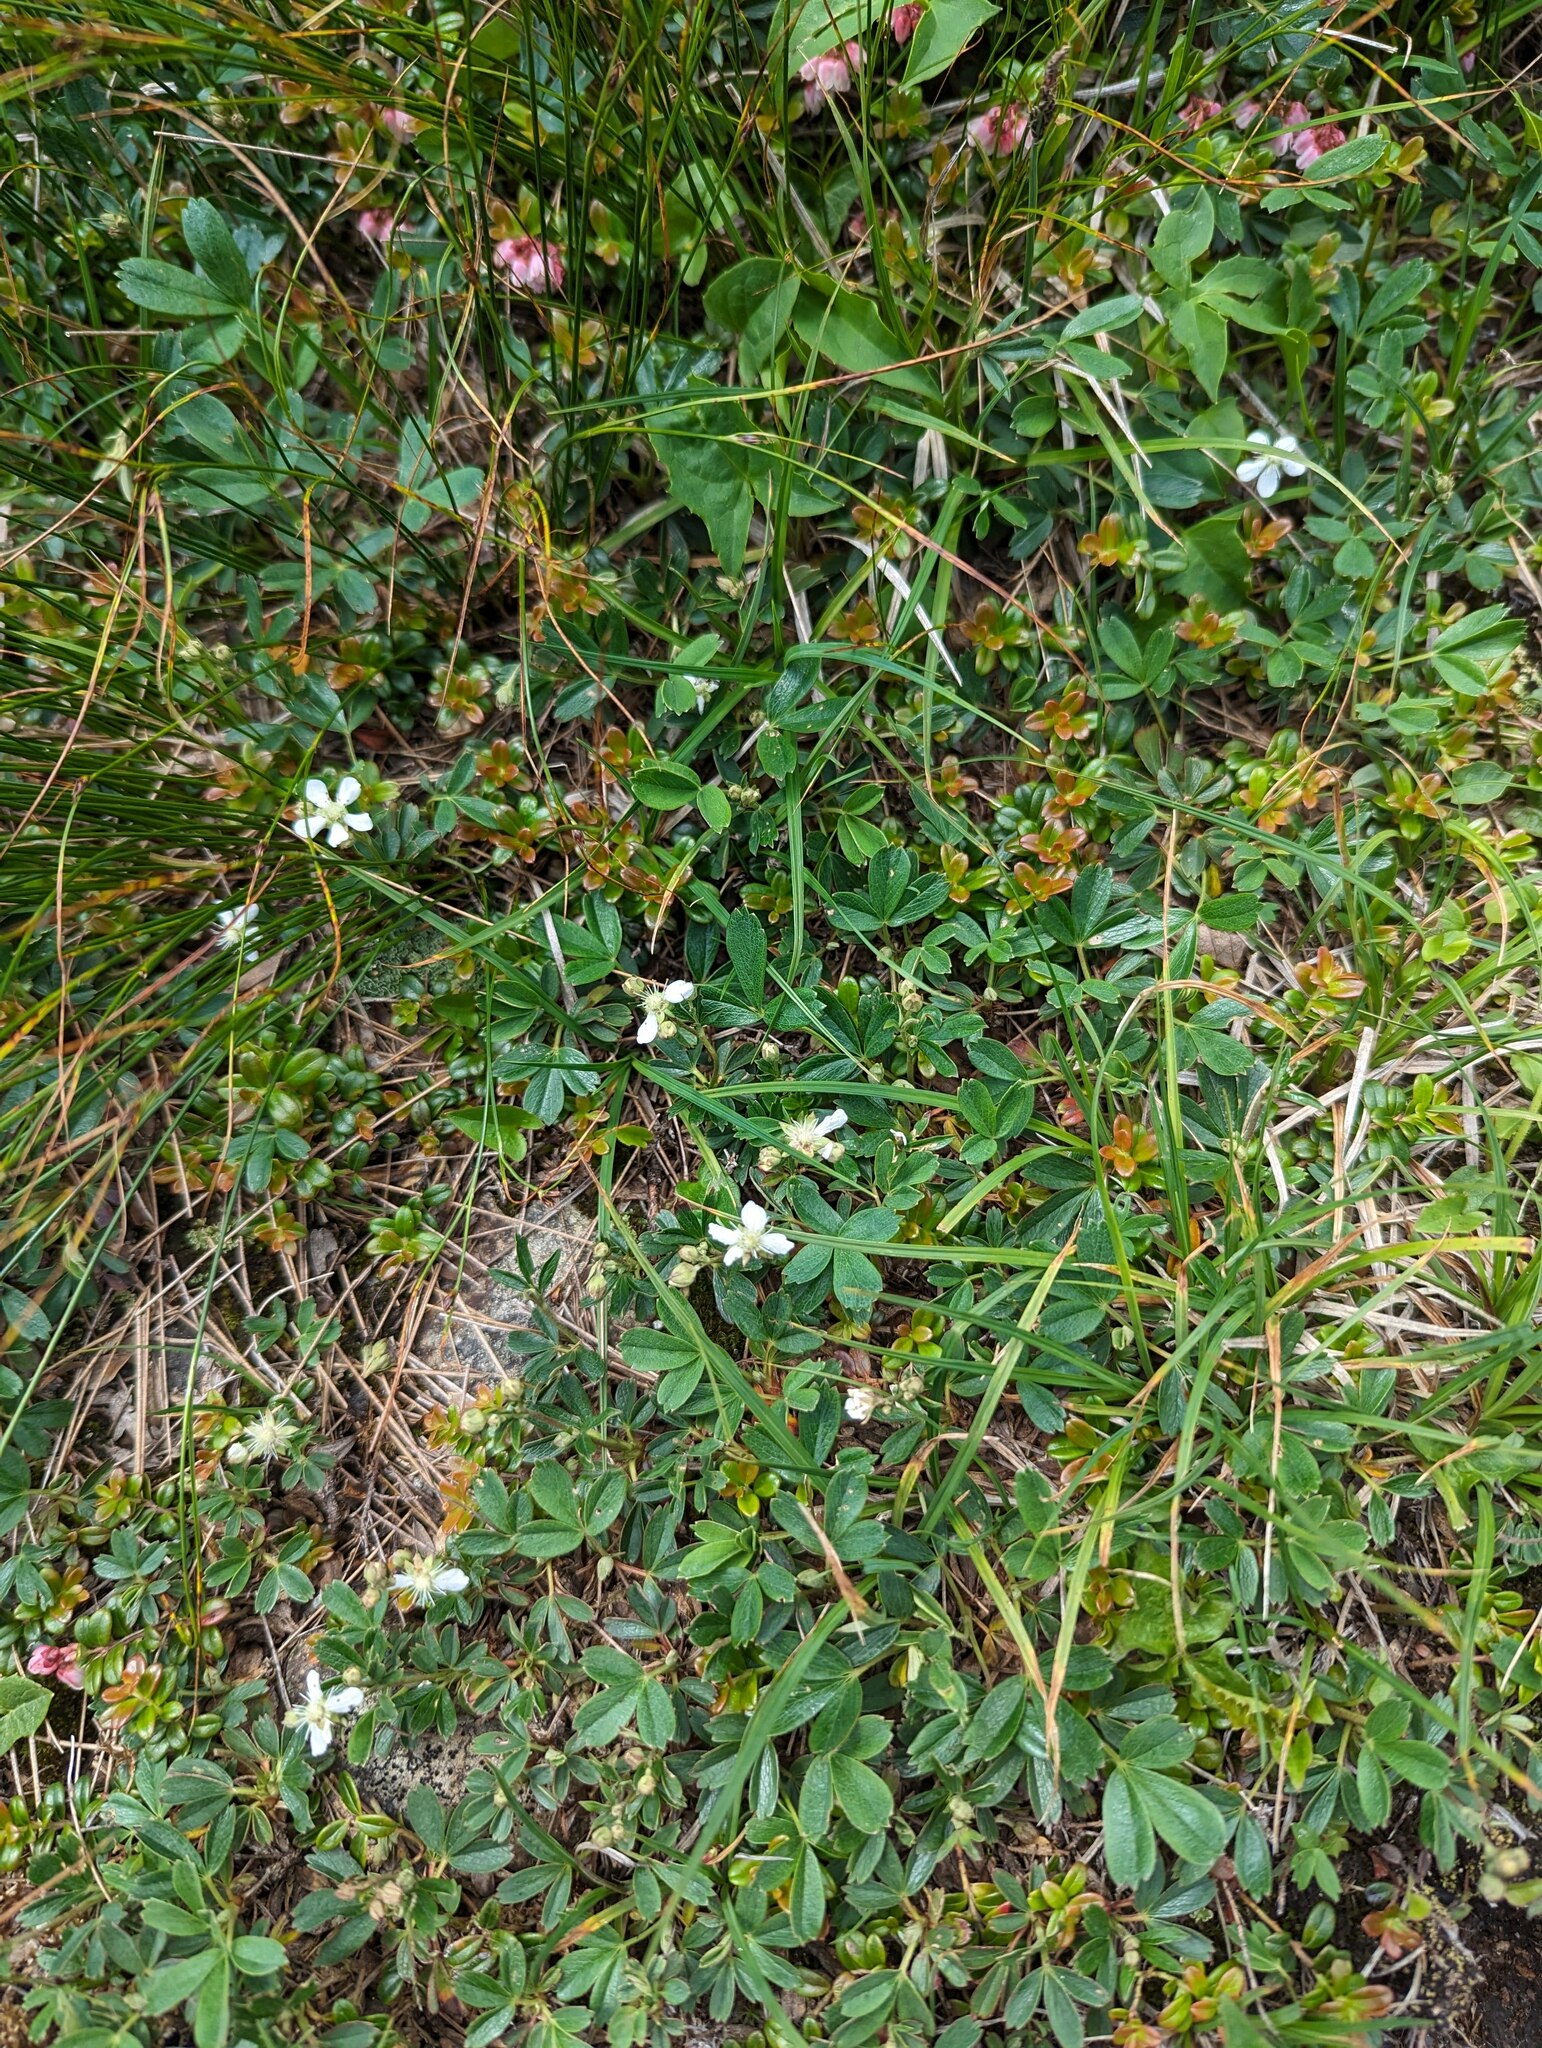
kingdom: Plantae
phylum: Tracheophyta
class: Magnoliopsida
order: Rosales
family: Rosaceae
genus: Sibbaldia
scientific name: Sibbaldia tridentata
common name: Three-toothed cinquefoil
